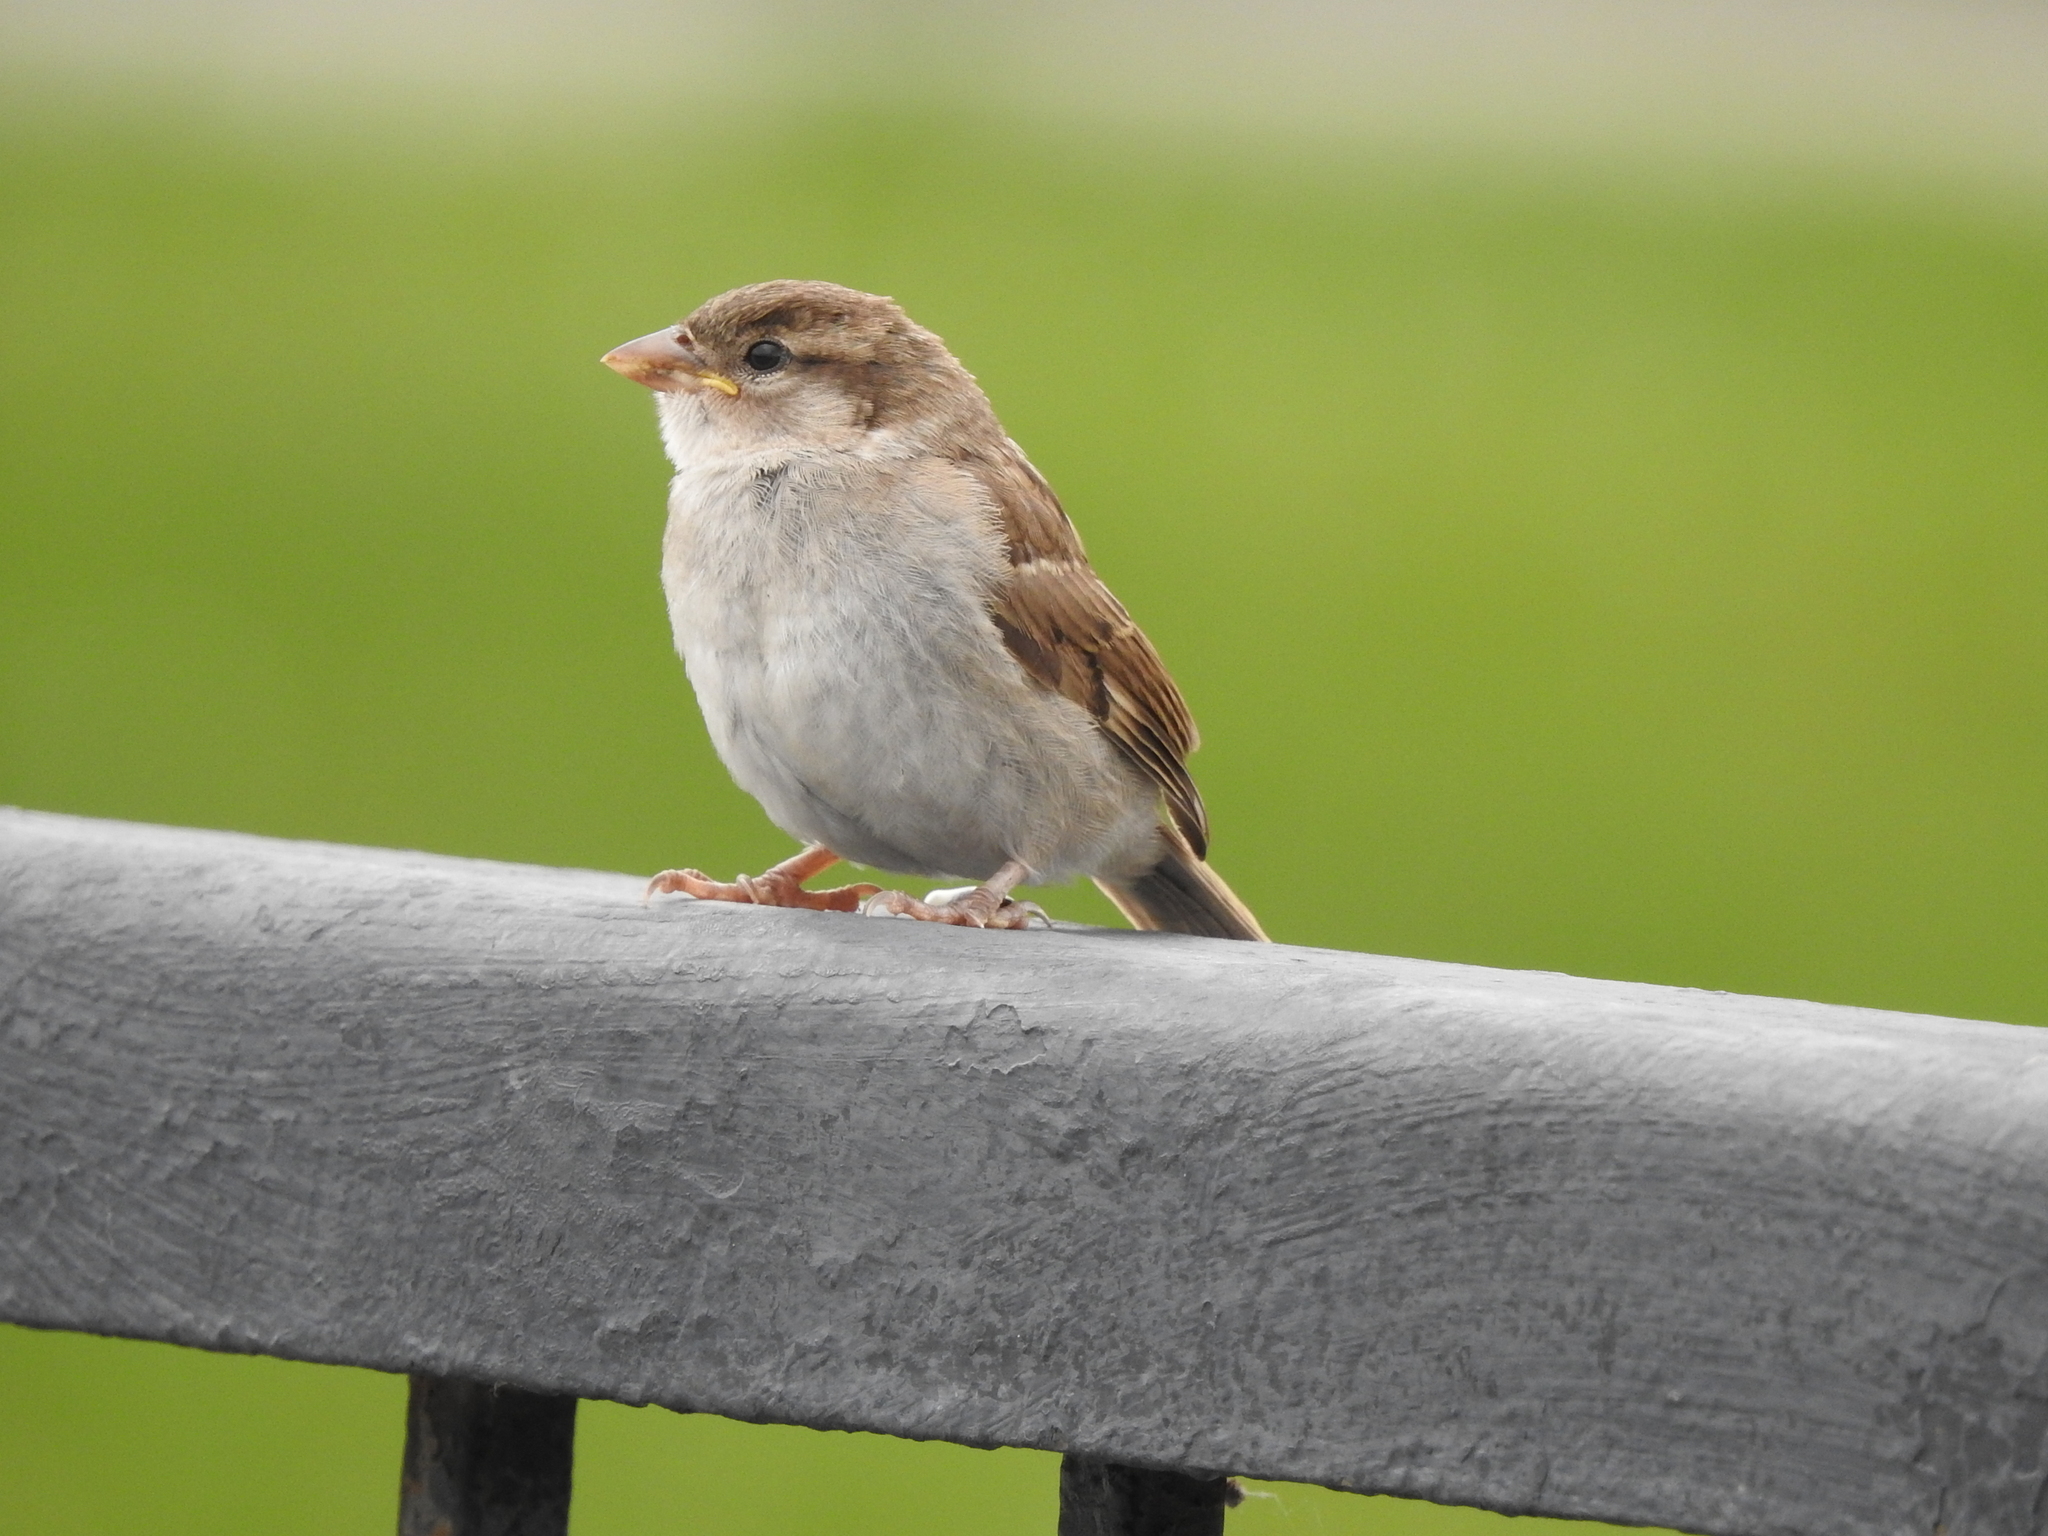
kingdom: Animalia
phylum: Chordata
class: Aves
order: Passeriformes
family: Passeridae
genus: Passer
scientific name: Passer domesticus
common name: House sparrow
